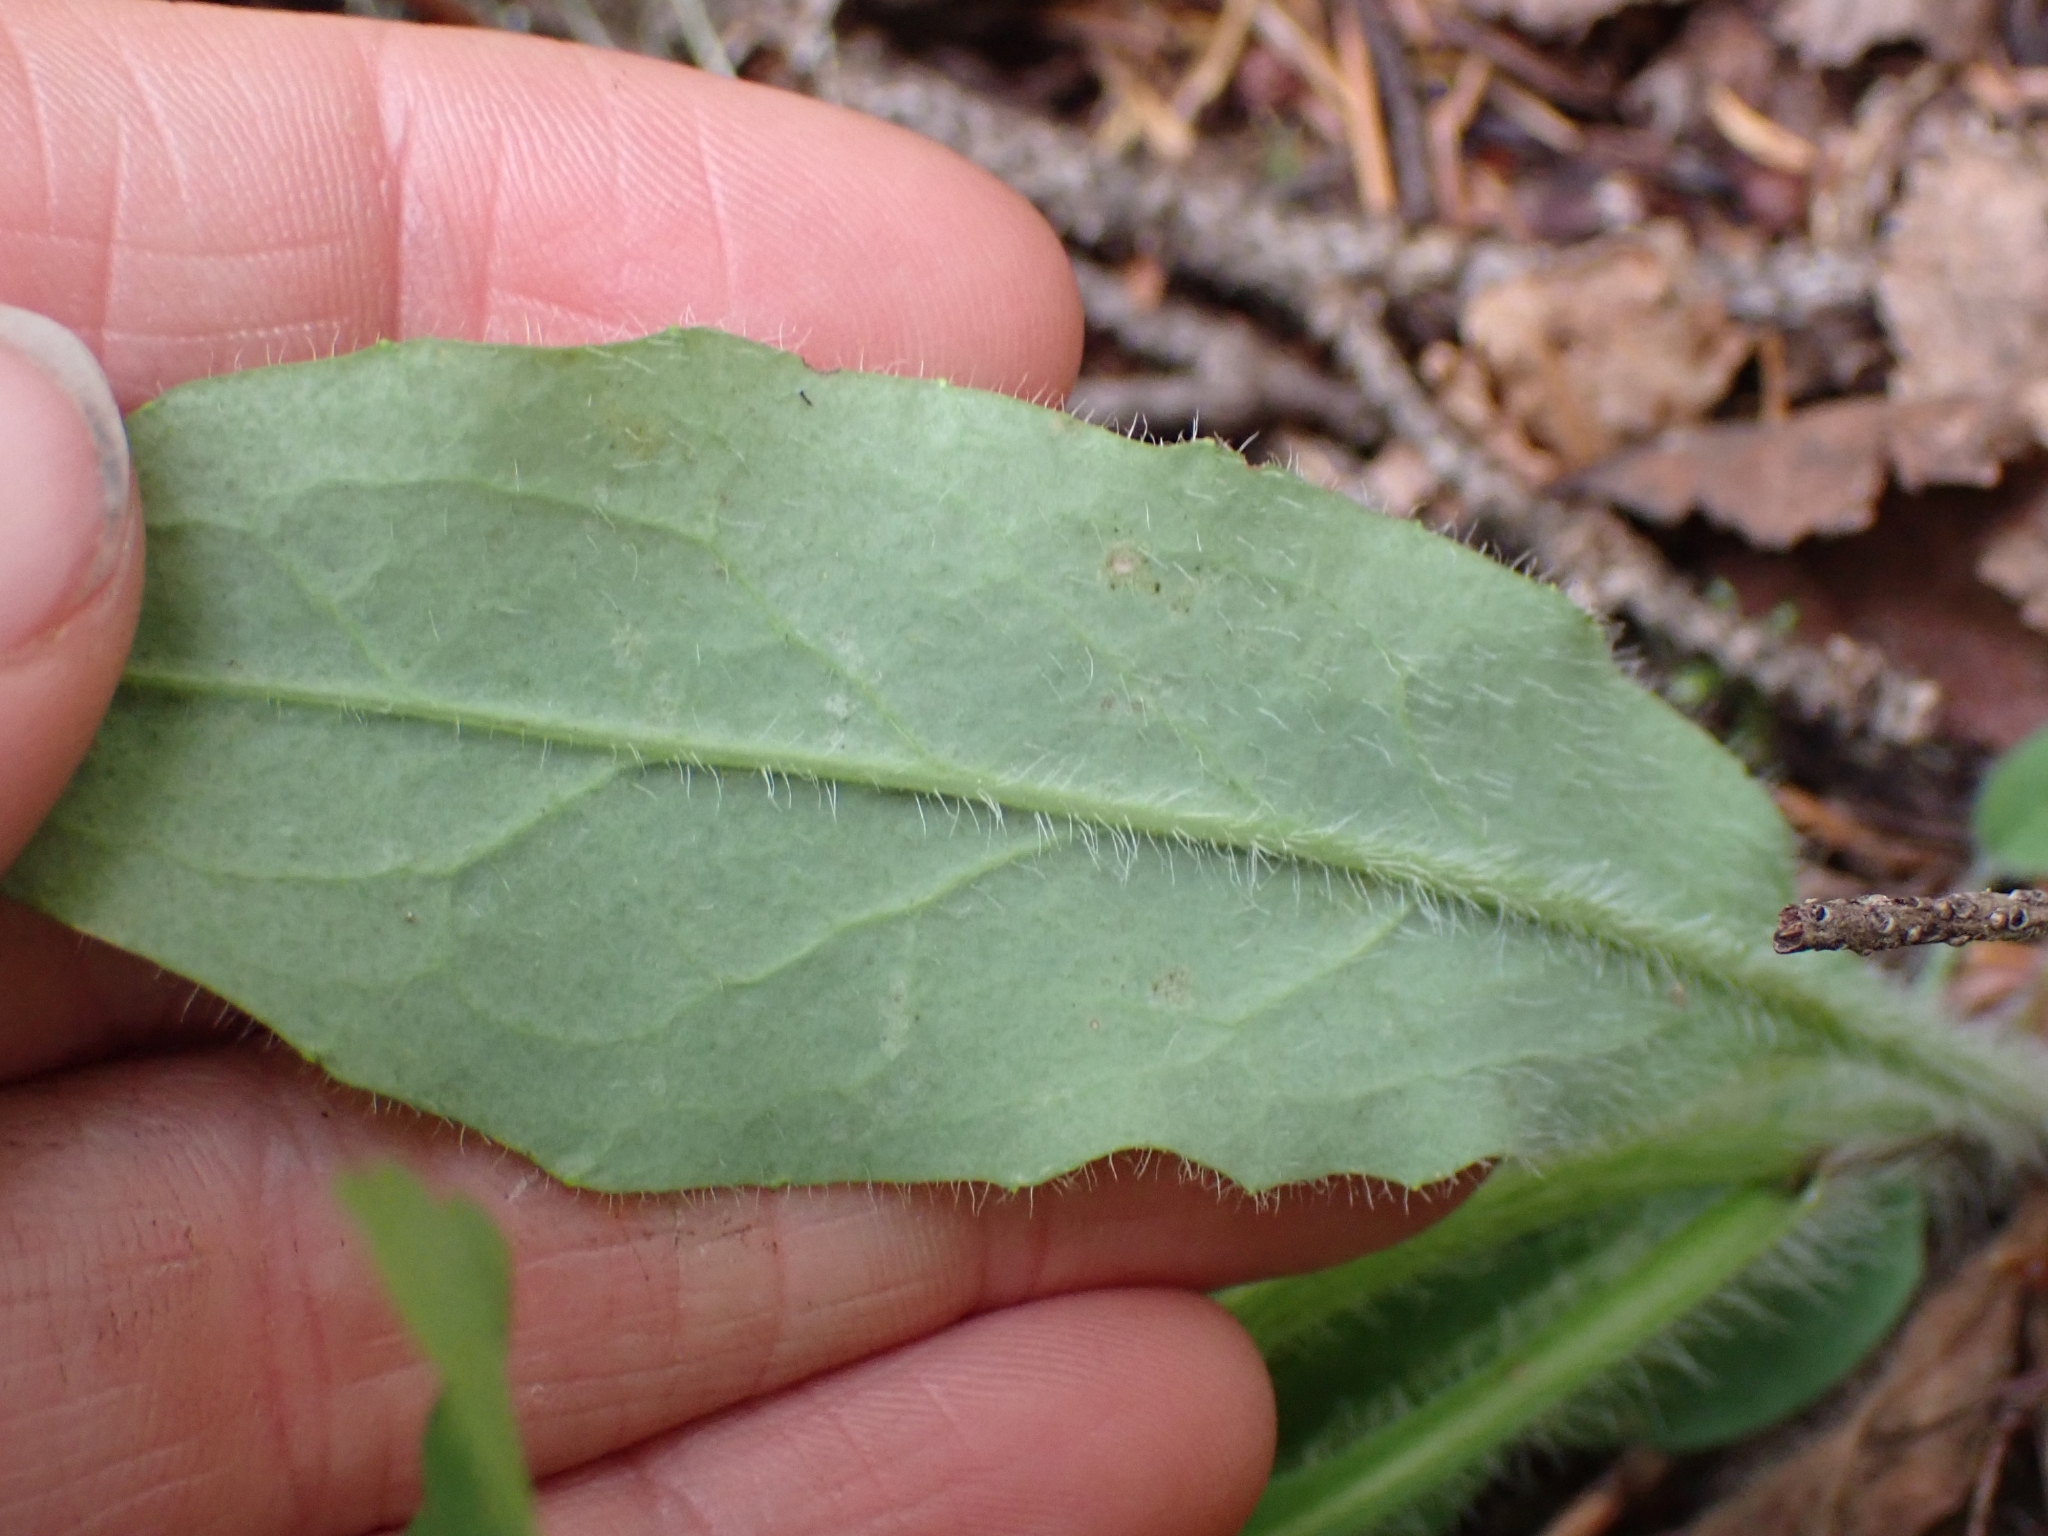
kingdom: Plantae
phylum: Tracheophyta
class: Magnoliopsida
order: Asterales
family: Asteraceae
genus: Hieracium
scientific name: Hieracium albiflorum
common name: White hawkweed
